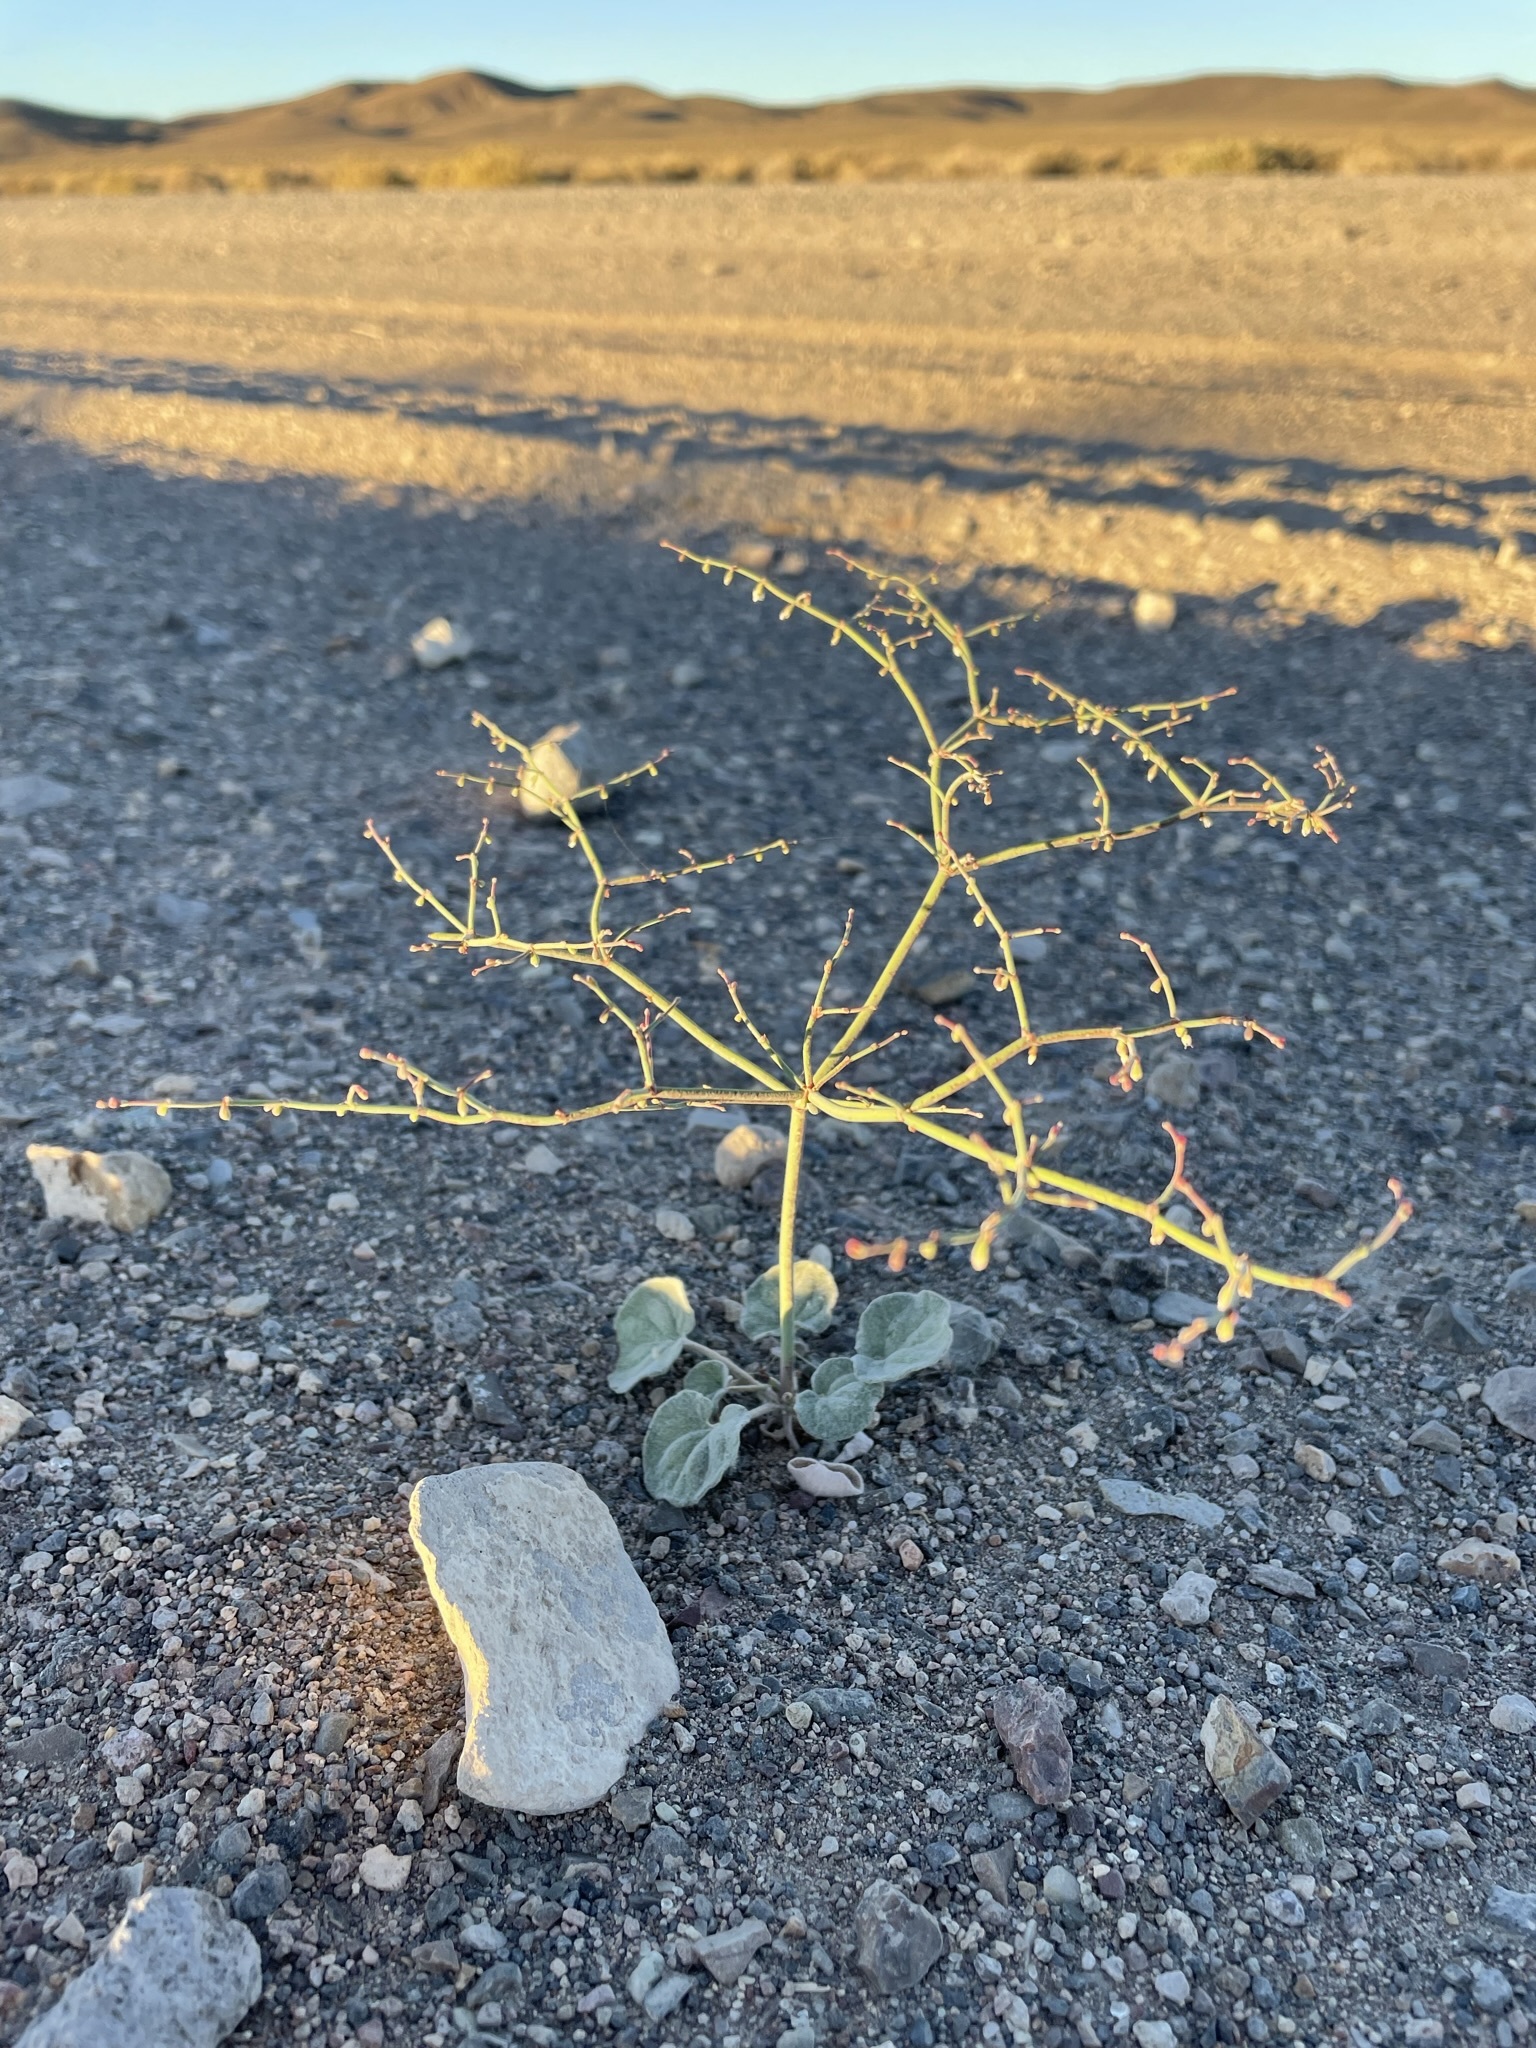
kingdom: Plantae
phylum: Tracheophyta
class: Magnoliopsida
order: Caryophyllales
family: Polygonaceae
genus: Eriogonum
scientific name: Eriogonum deflexum
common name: Skeleton-weed
